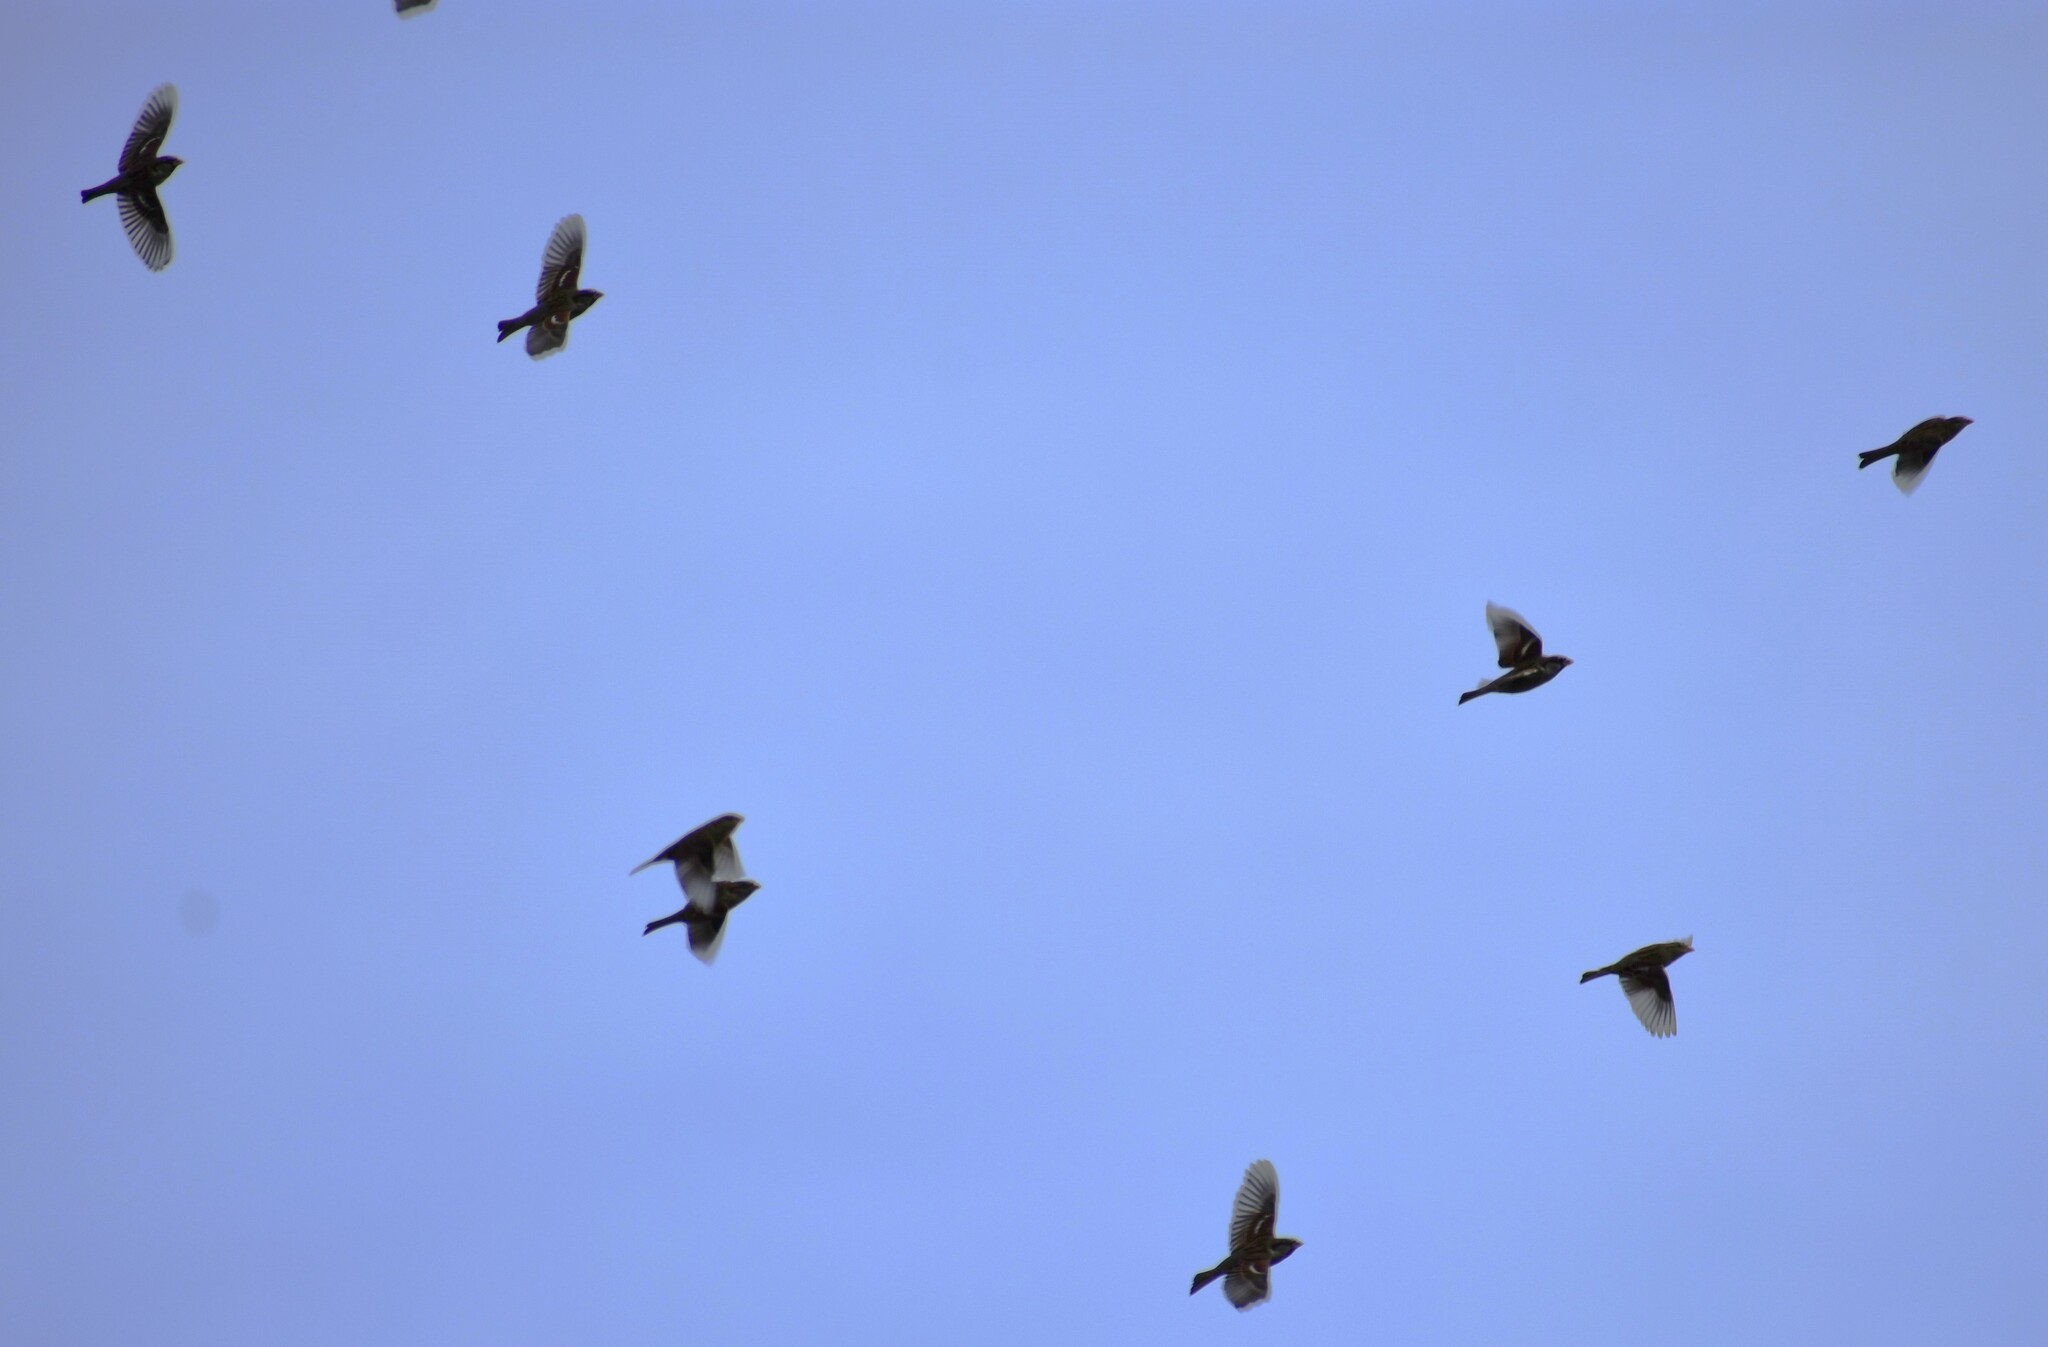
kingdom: Animalia
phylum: Chordata
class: Aves
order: Passeriformes
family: Passeridae
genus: Passer
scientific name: Passer domesticus
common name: House sparrow
